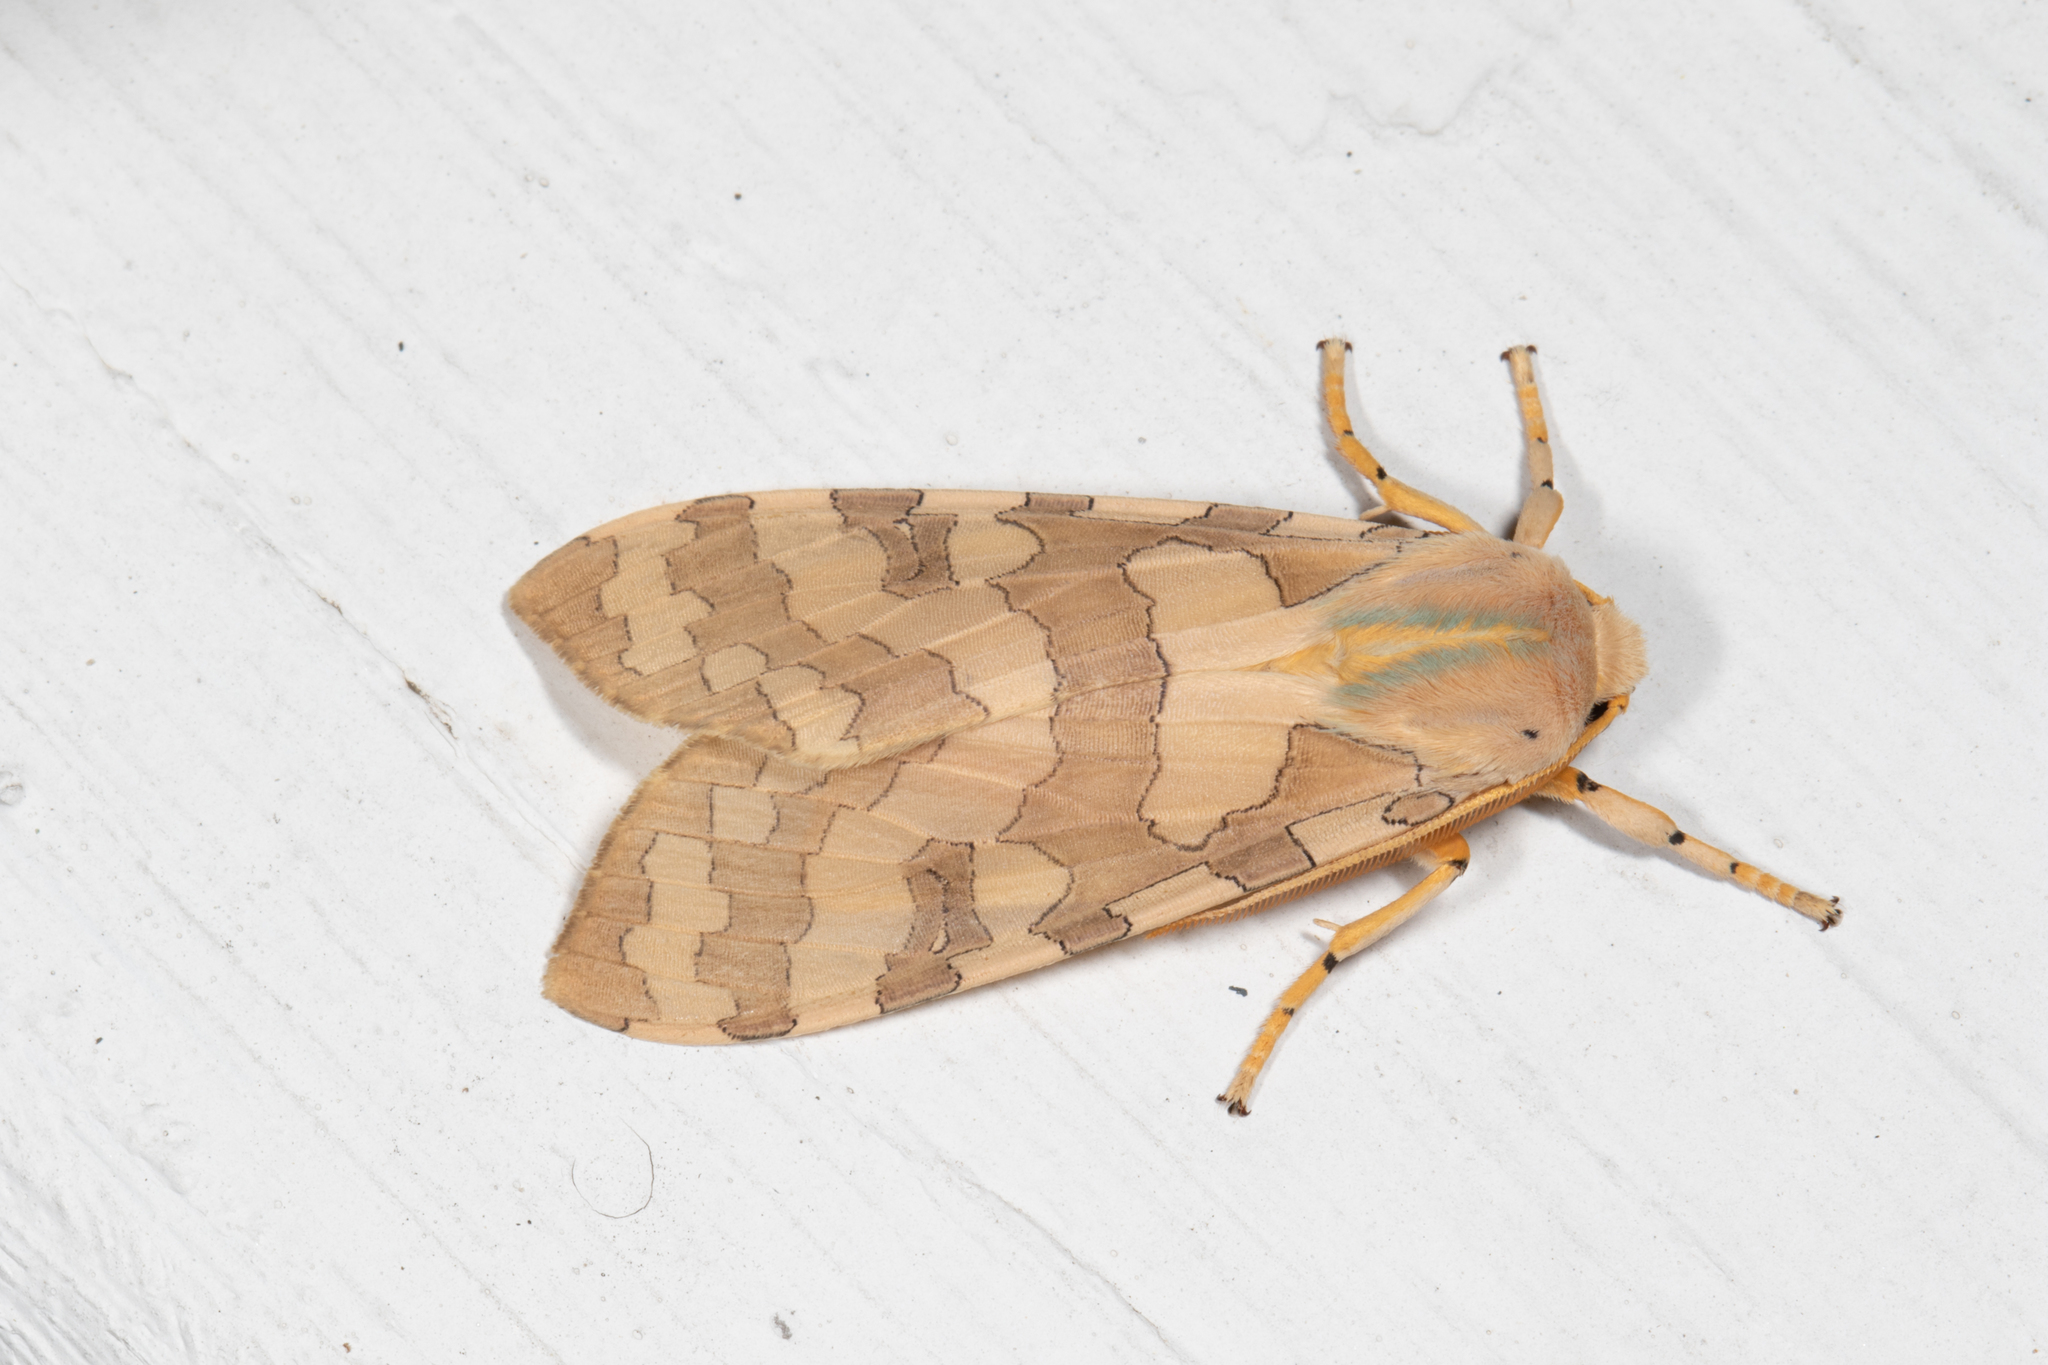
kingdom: Animalia
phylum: Arthropoda
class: Insecta
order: Lepidoptera
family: Erebidae
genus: Halysidota
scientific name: Halysidota
